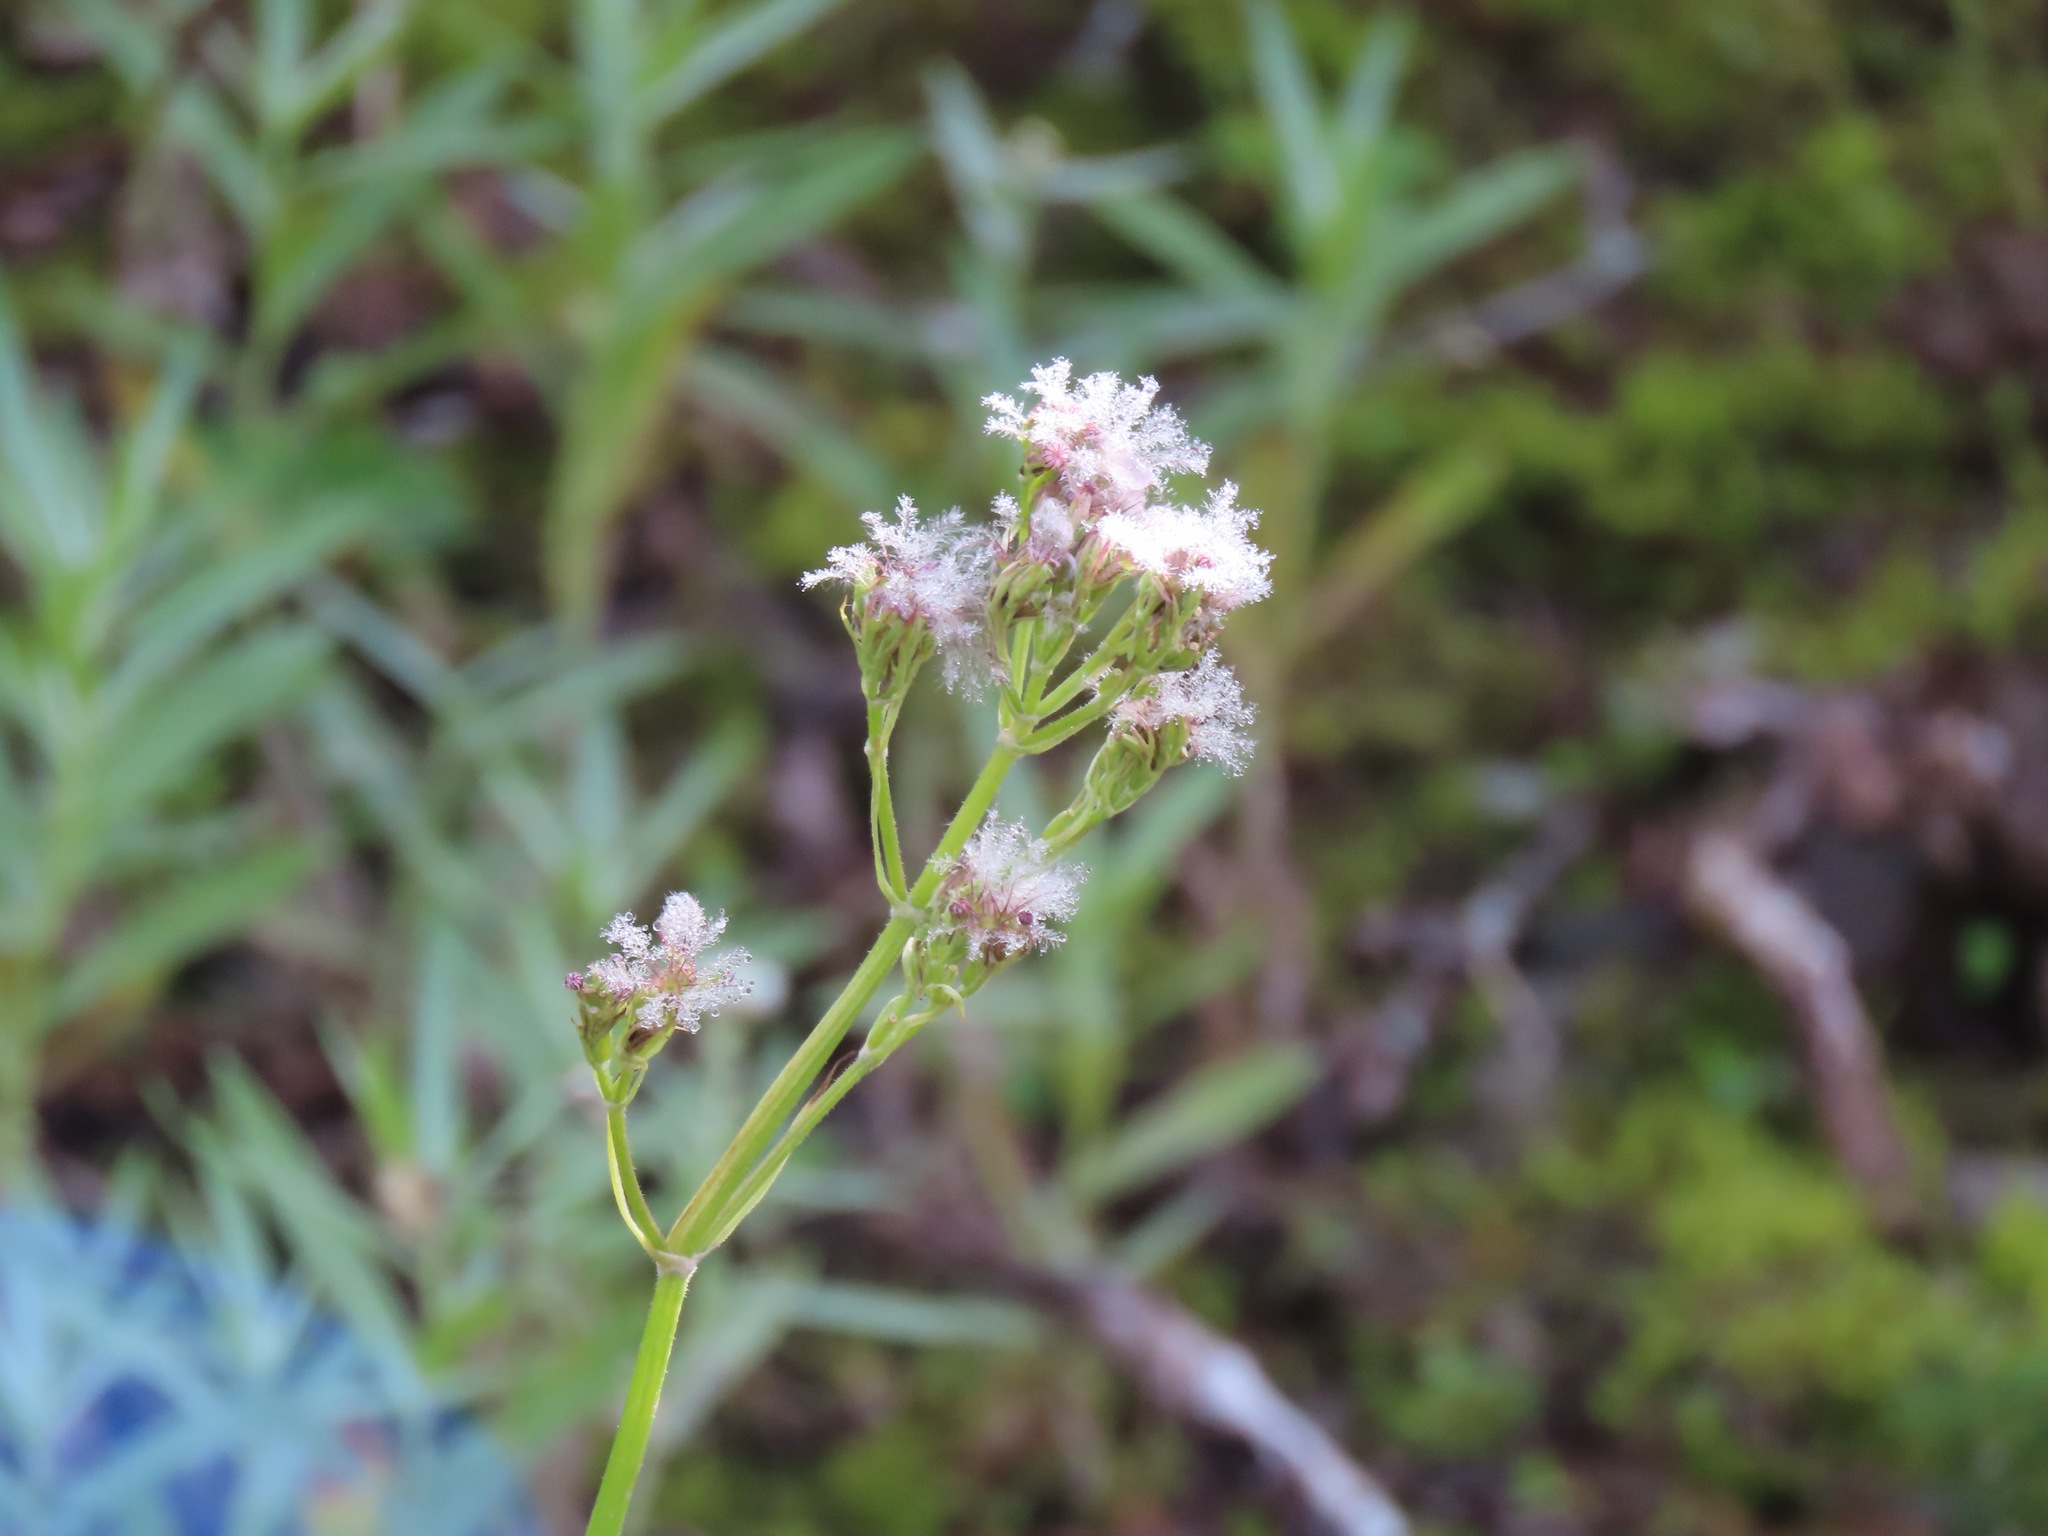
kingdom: Plantae
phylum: Tracheophyta
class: Magnoliopsida
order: Dipsacales
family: Caprifoliaceae
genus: Valeriana
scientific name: Valeriana sitchensis
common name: Pacific valerian
